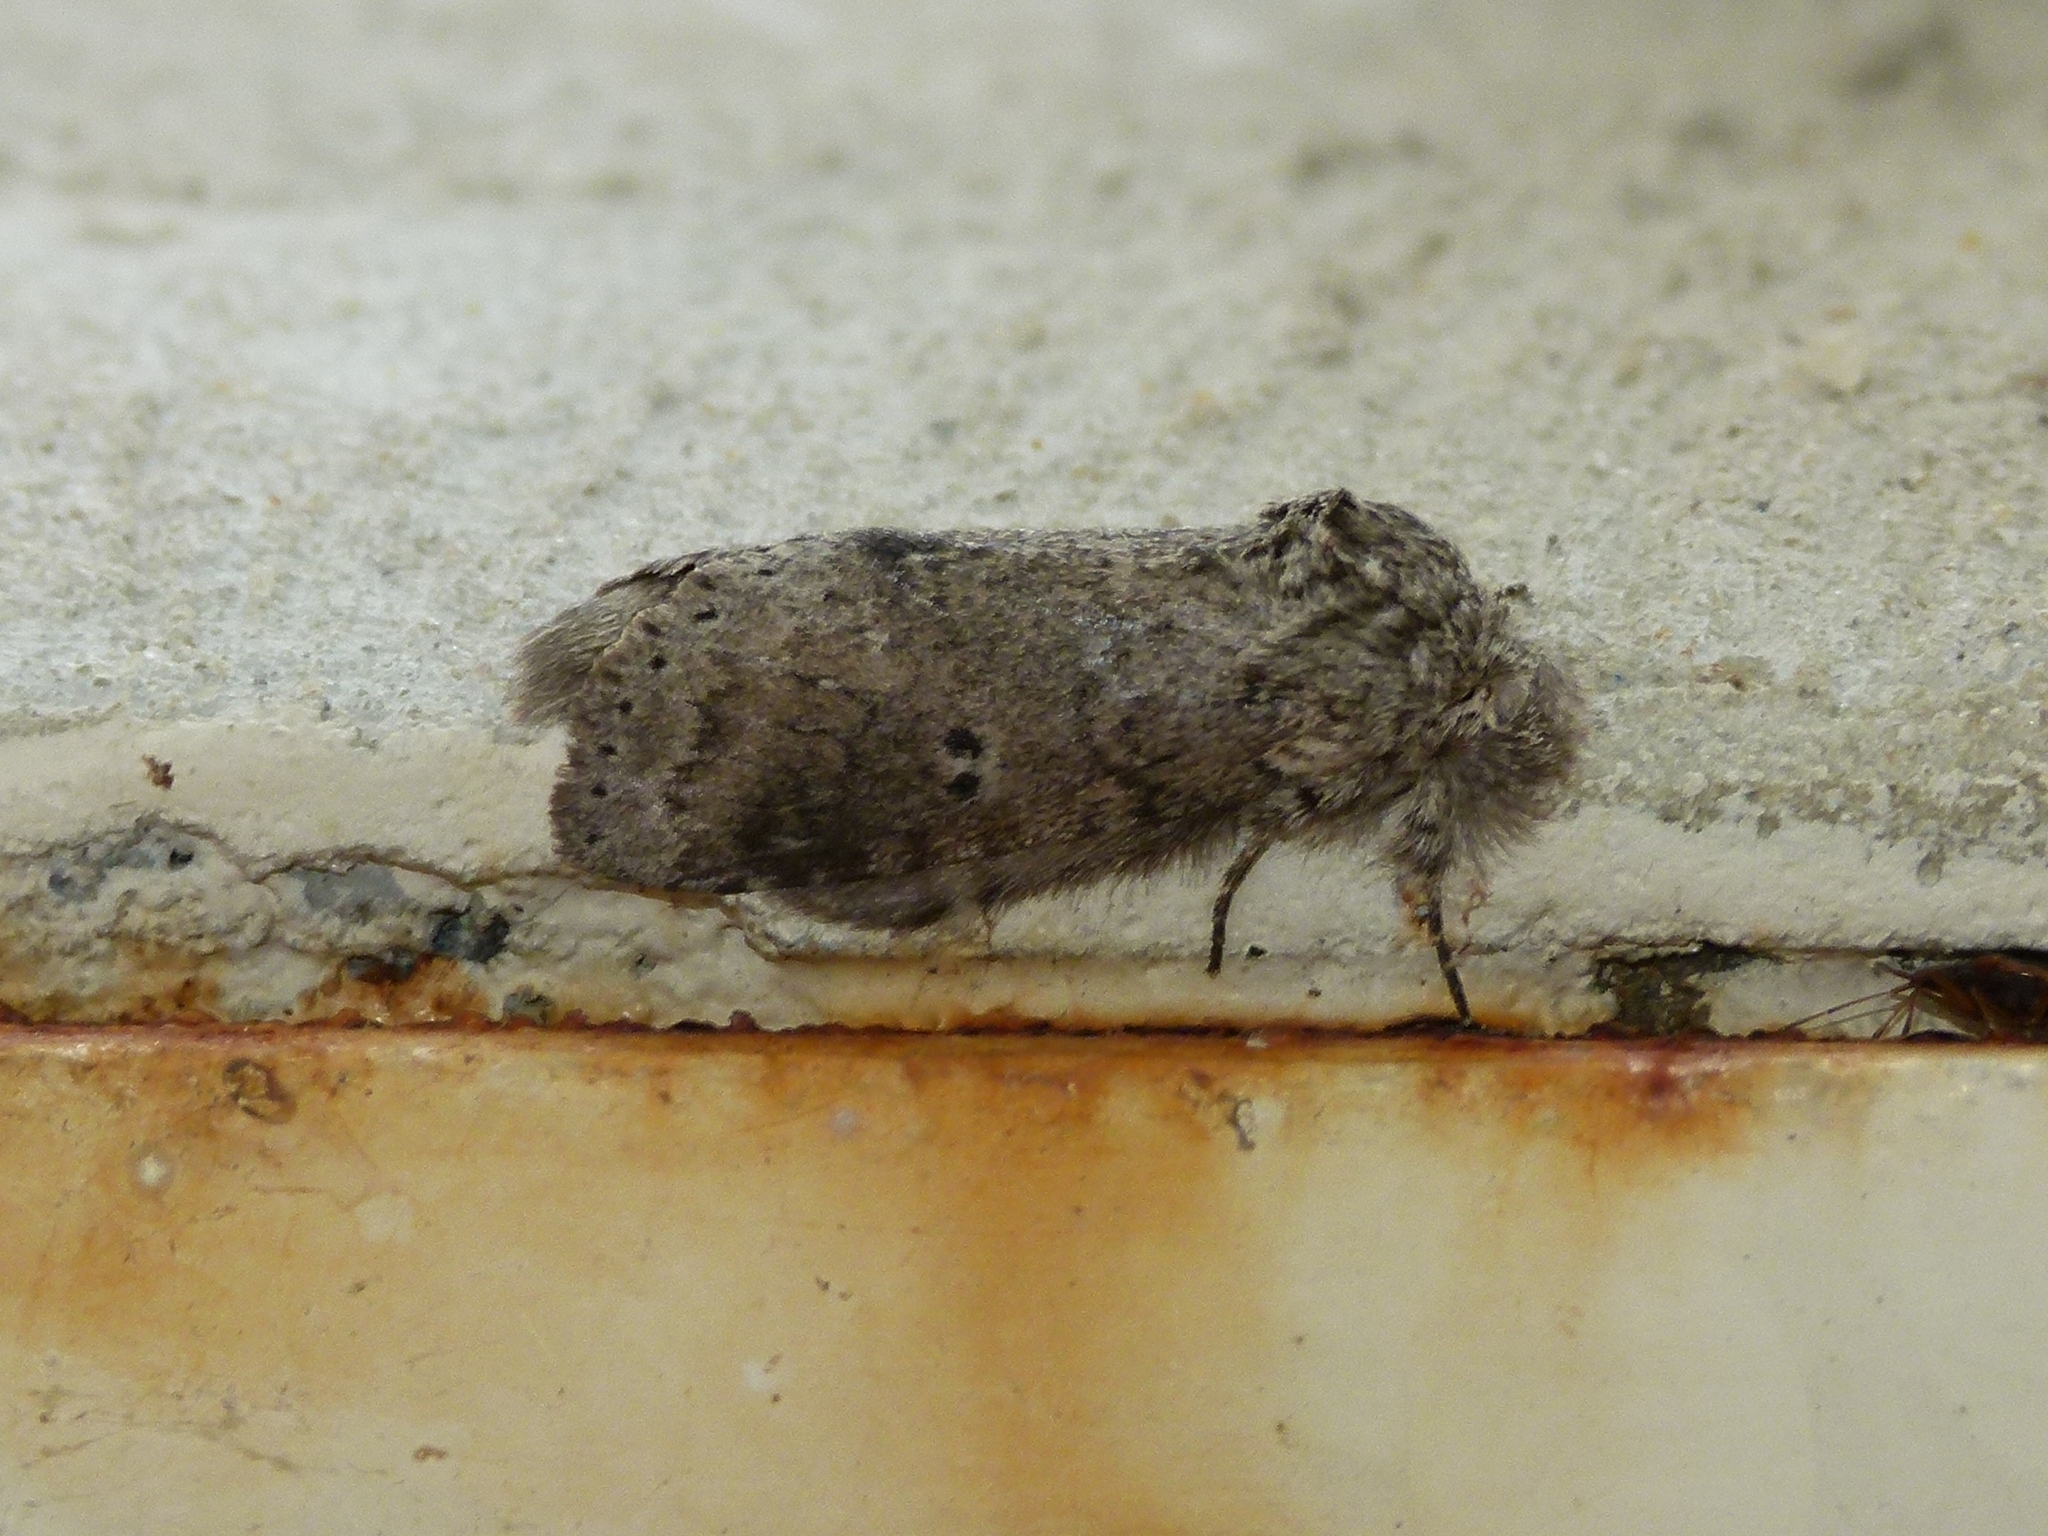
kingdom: Animalia
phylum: Arthropoda
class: Insecta
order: Lepidoptera
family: Notodontidae
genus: Lochmaeus
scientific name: Lochmaeus manteo
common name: Variable oakleaf caterpillar moth
